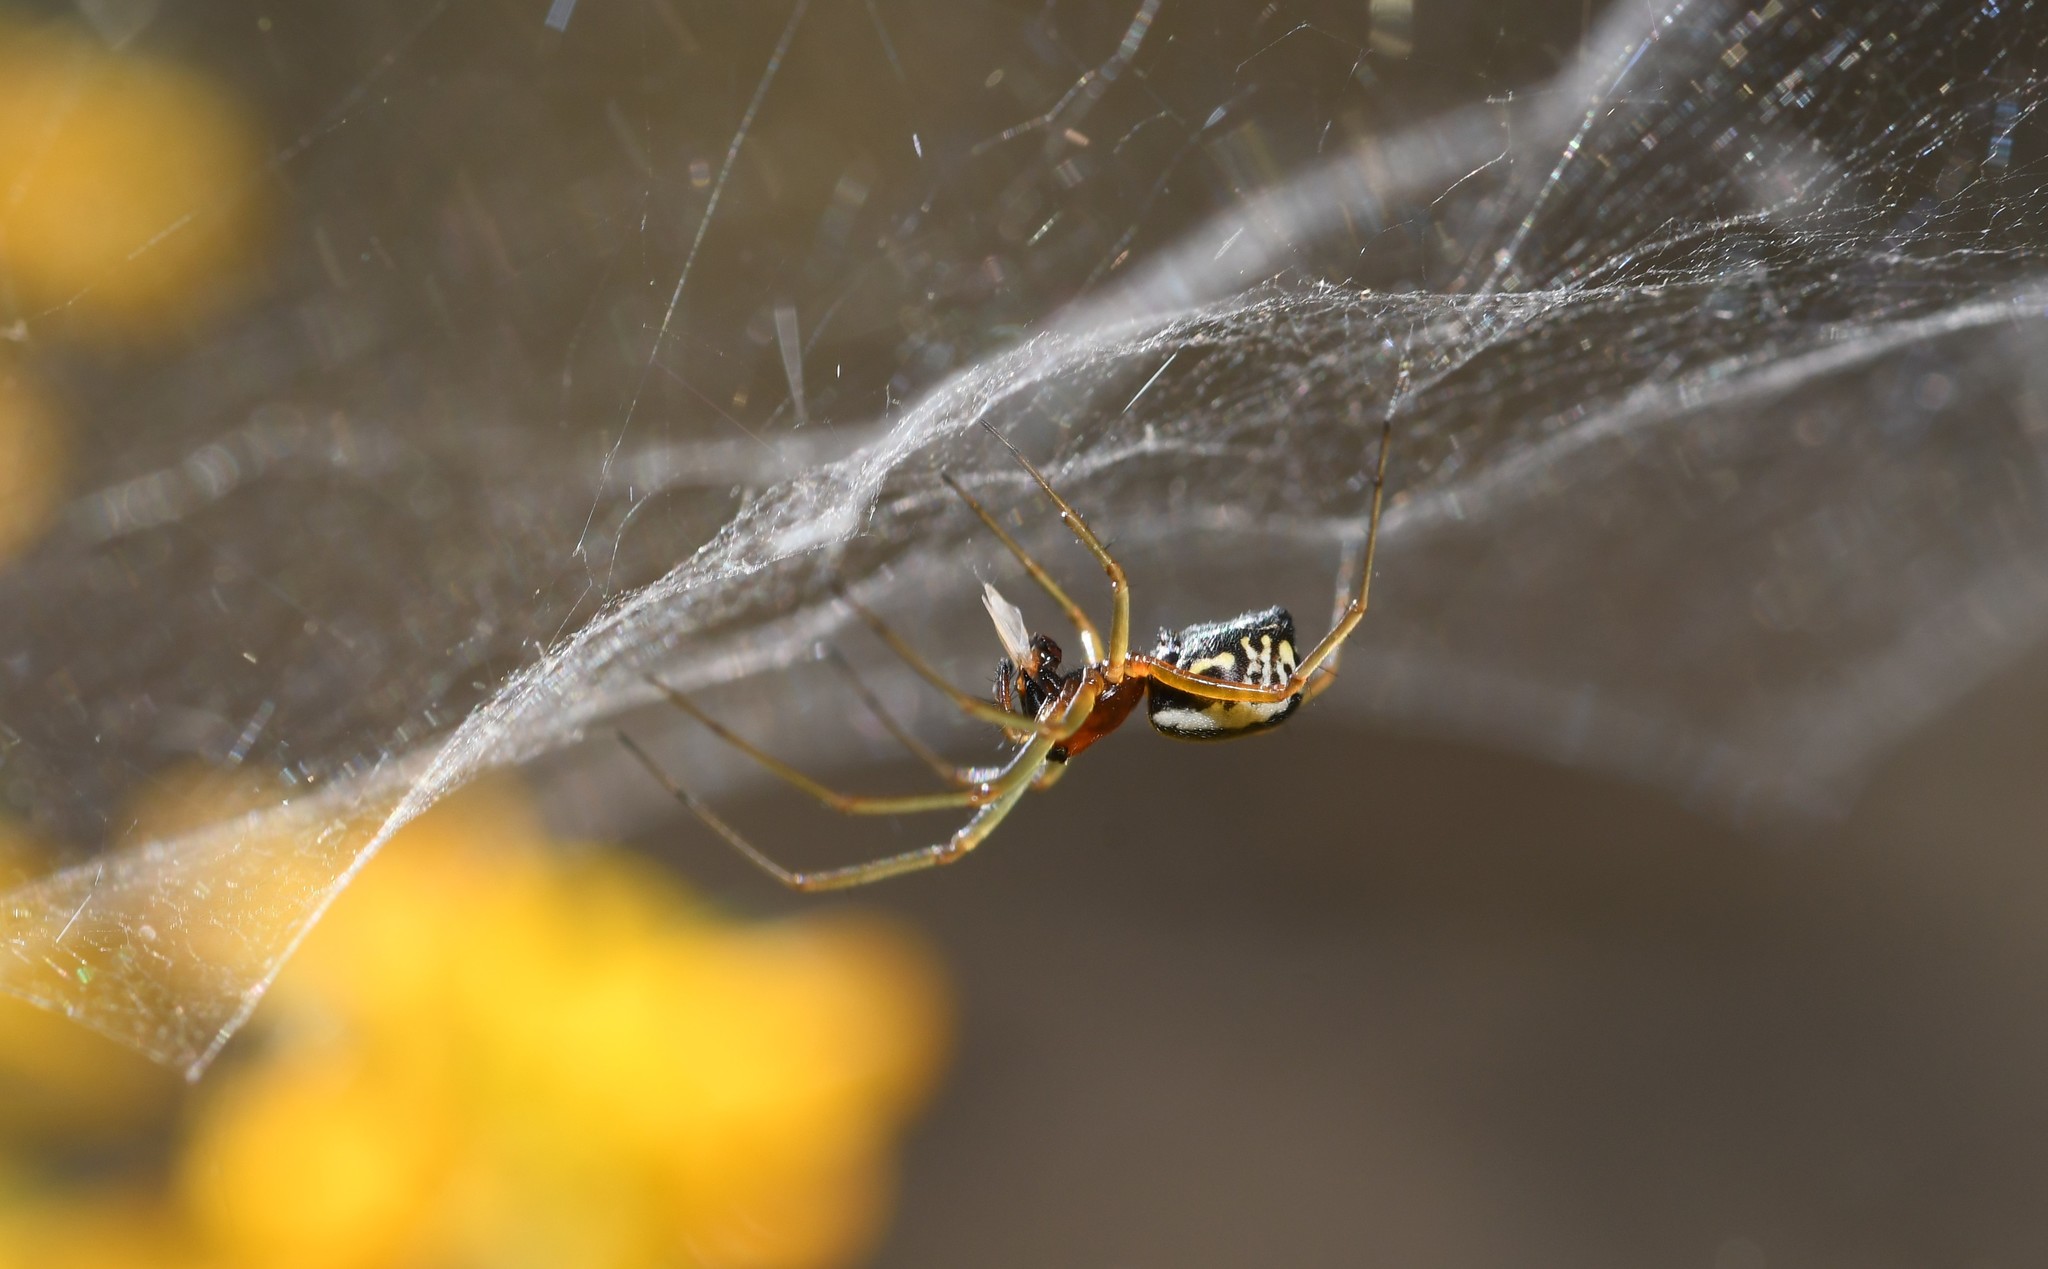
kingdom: Animalia
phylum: Arthropoda
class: Arachnida
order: Araneae
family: Linyphiidae
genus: Frontinellina
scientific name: Frontinellina frutetorum
